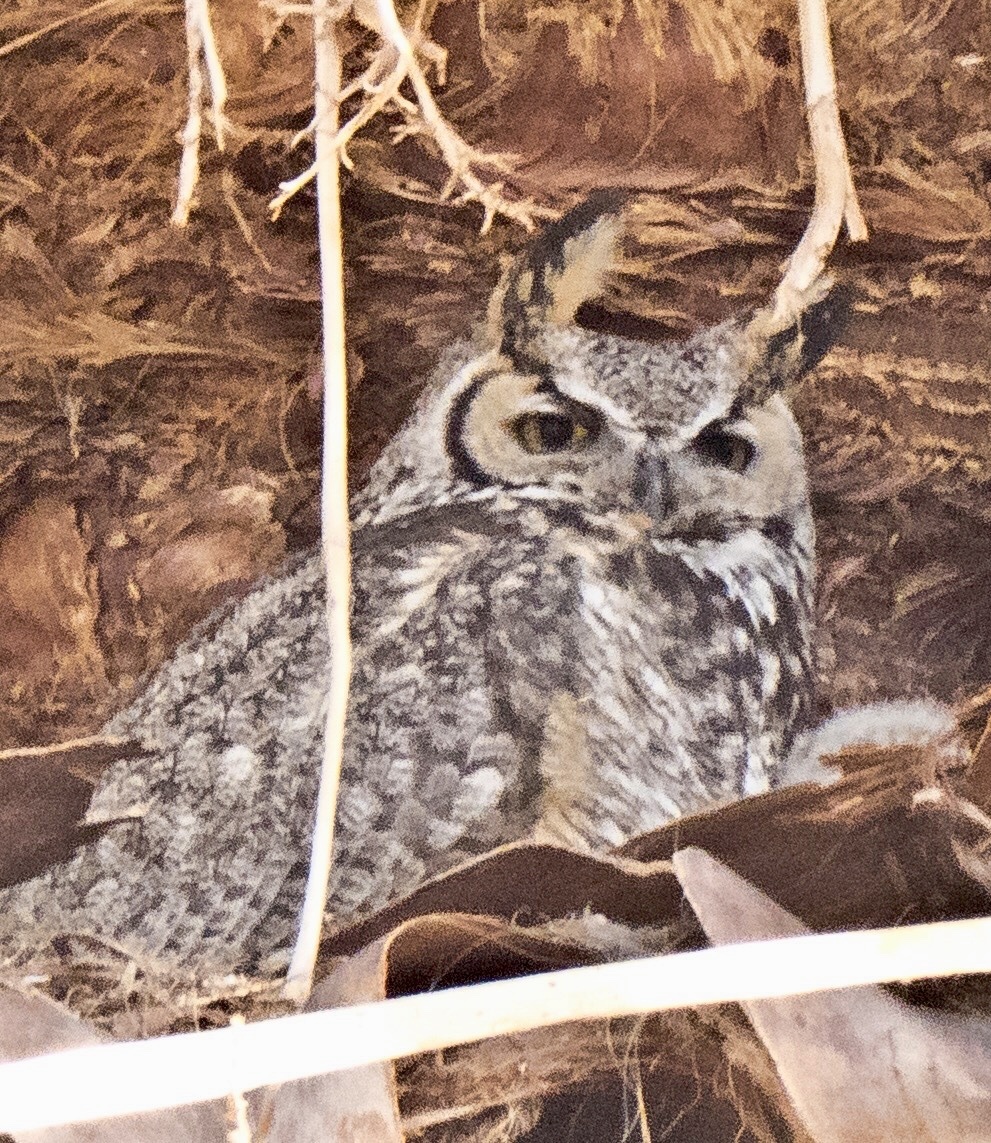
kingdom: Animalia
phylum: Chordata
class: Aves
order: Strigiformes
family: Strigidae
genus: Bubo
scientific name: Bubo virginianus
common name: Great horned owl
